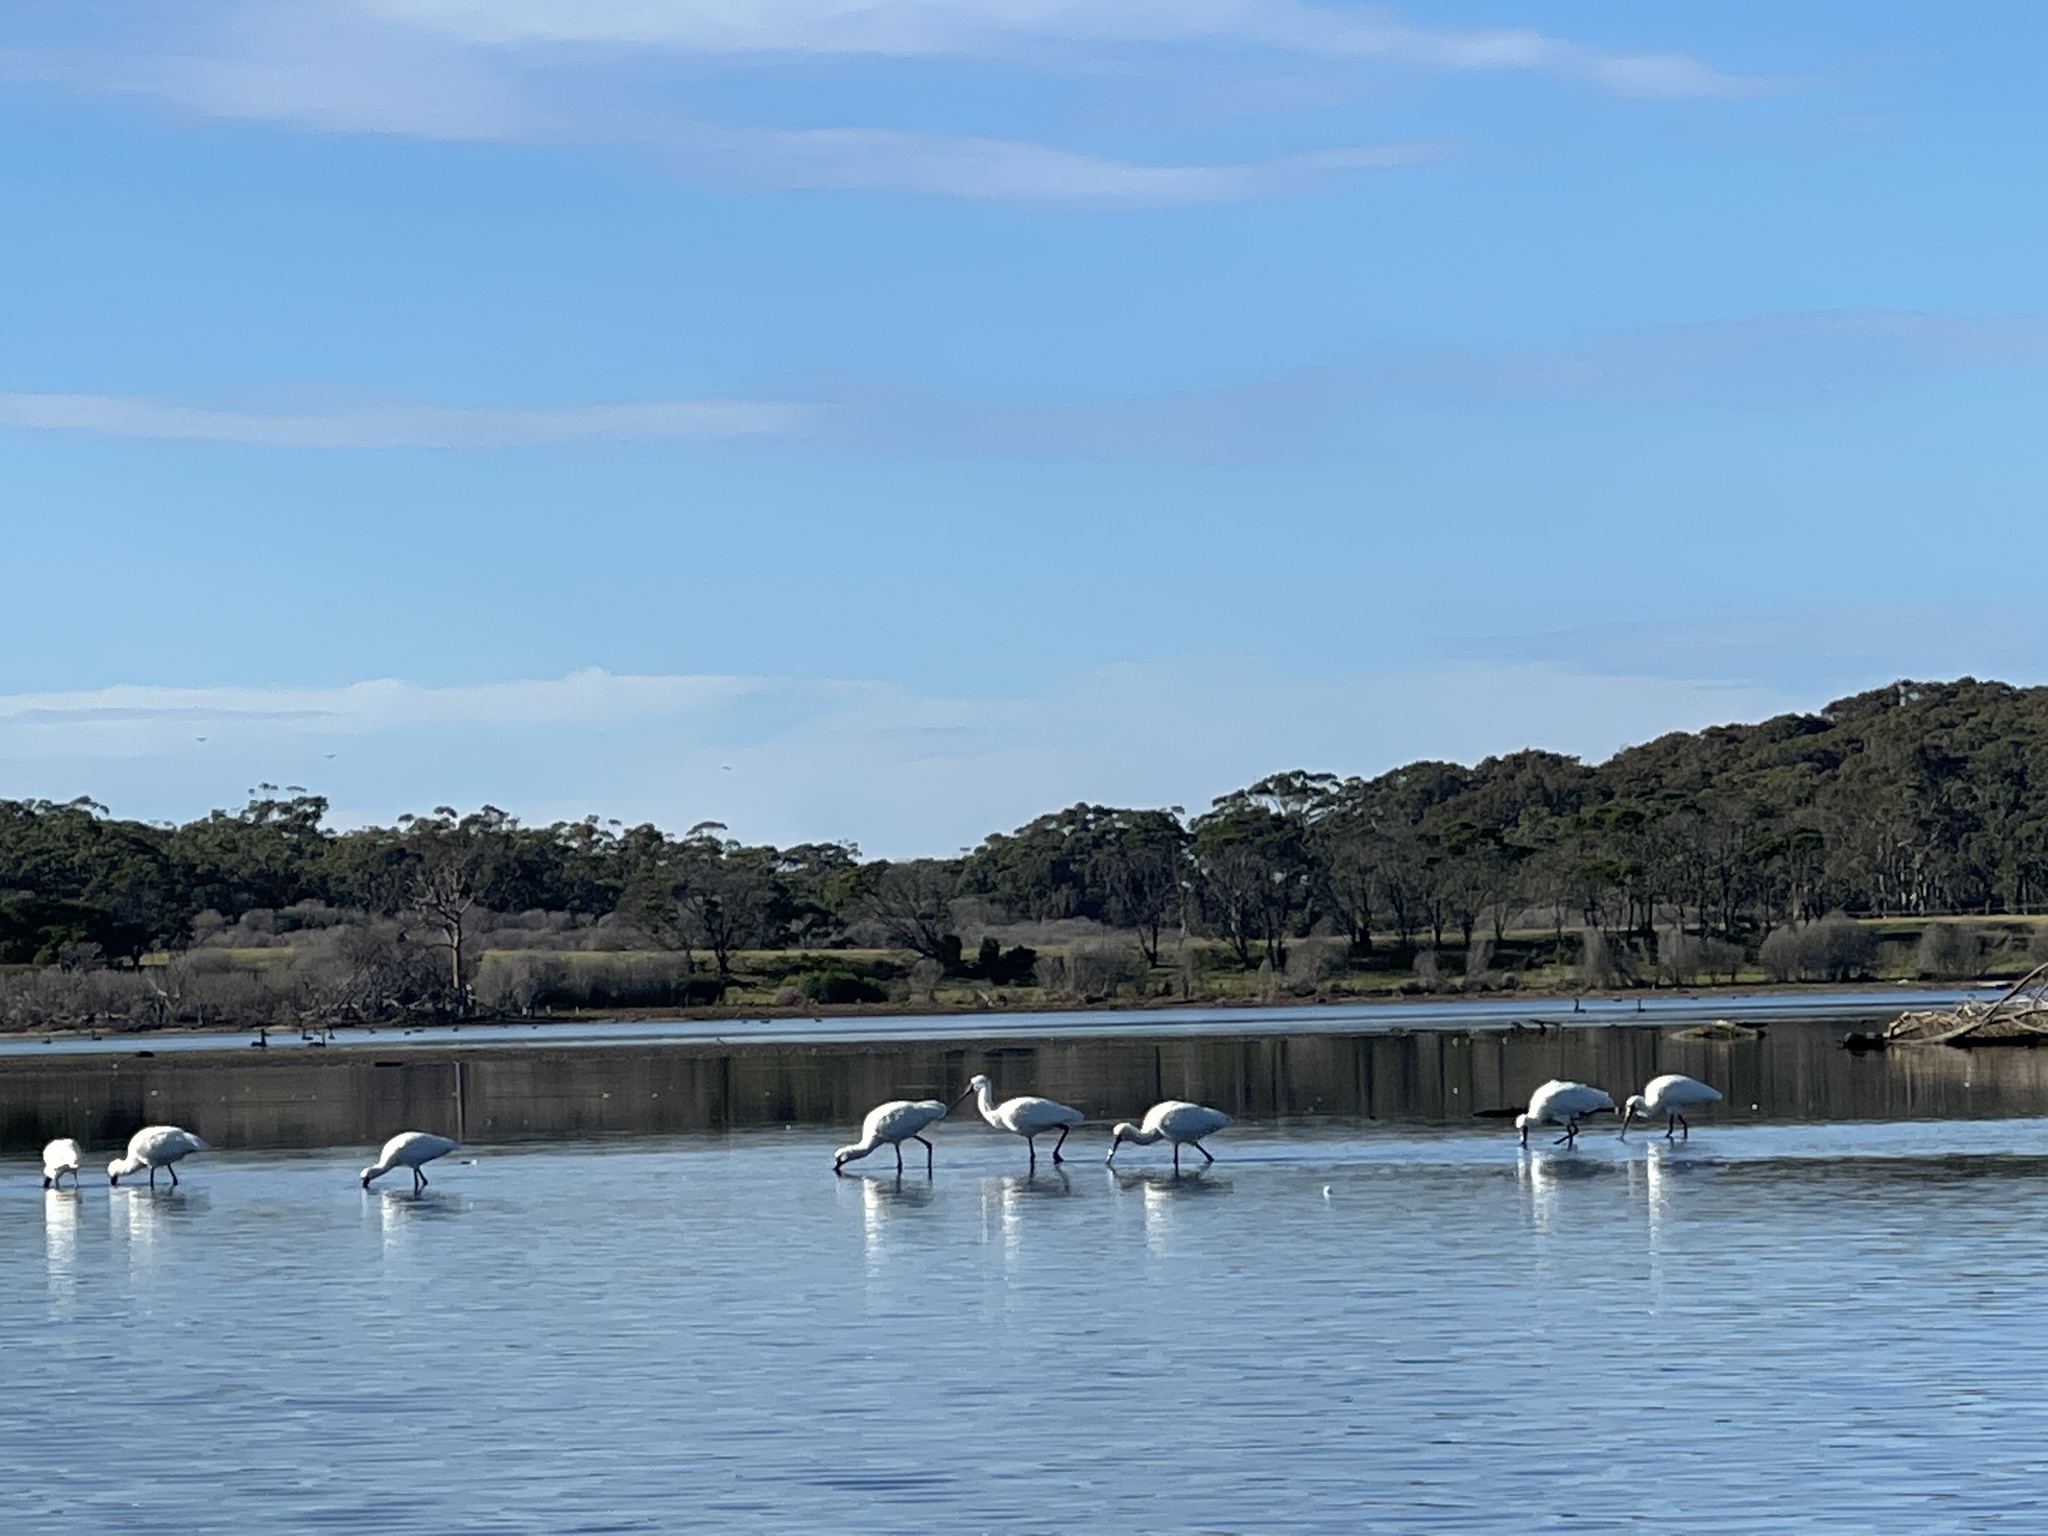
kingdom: Animalia
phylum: Chordata
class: Aves
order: Pelecaniformes
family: Threskiornithidae
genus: Platalea
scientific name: Platalea regia
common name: Royal spoonbill
